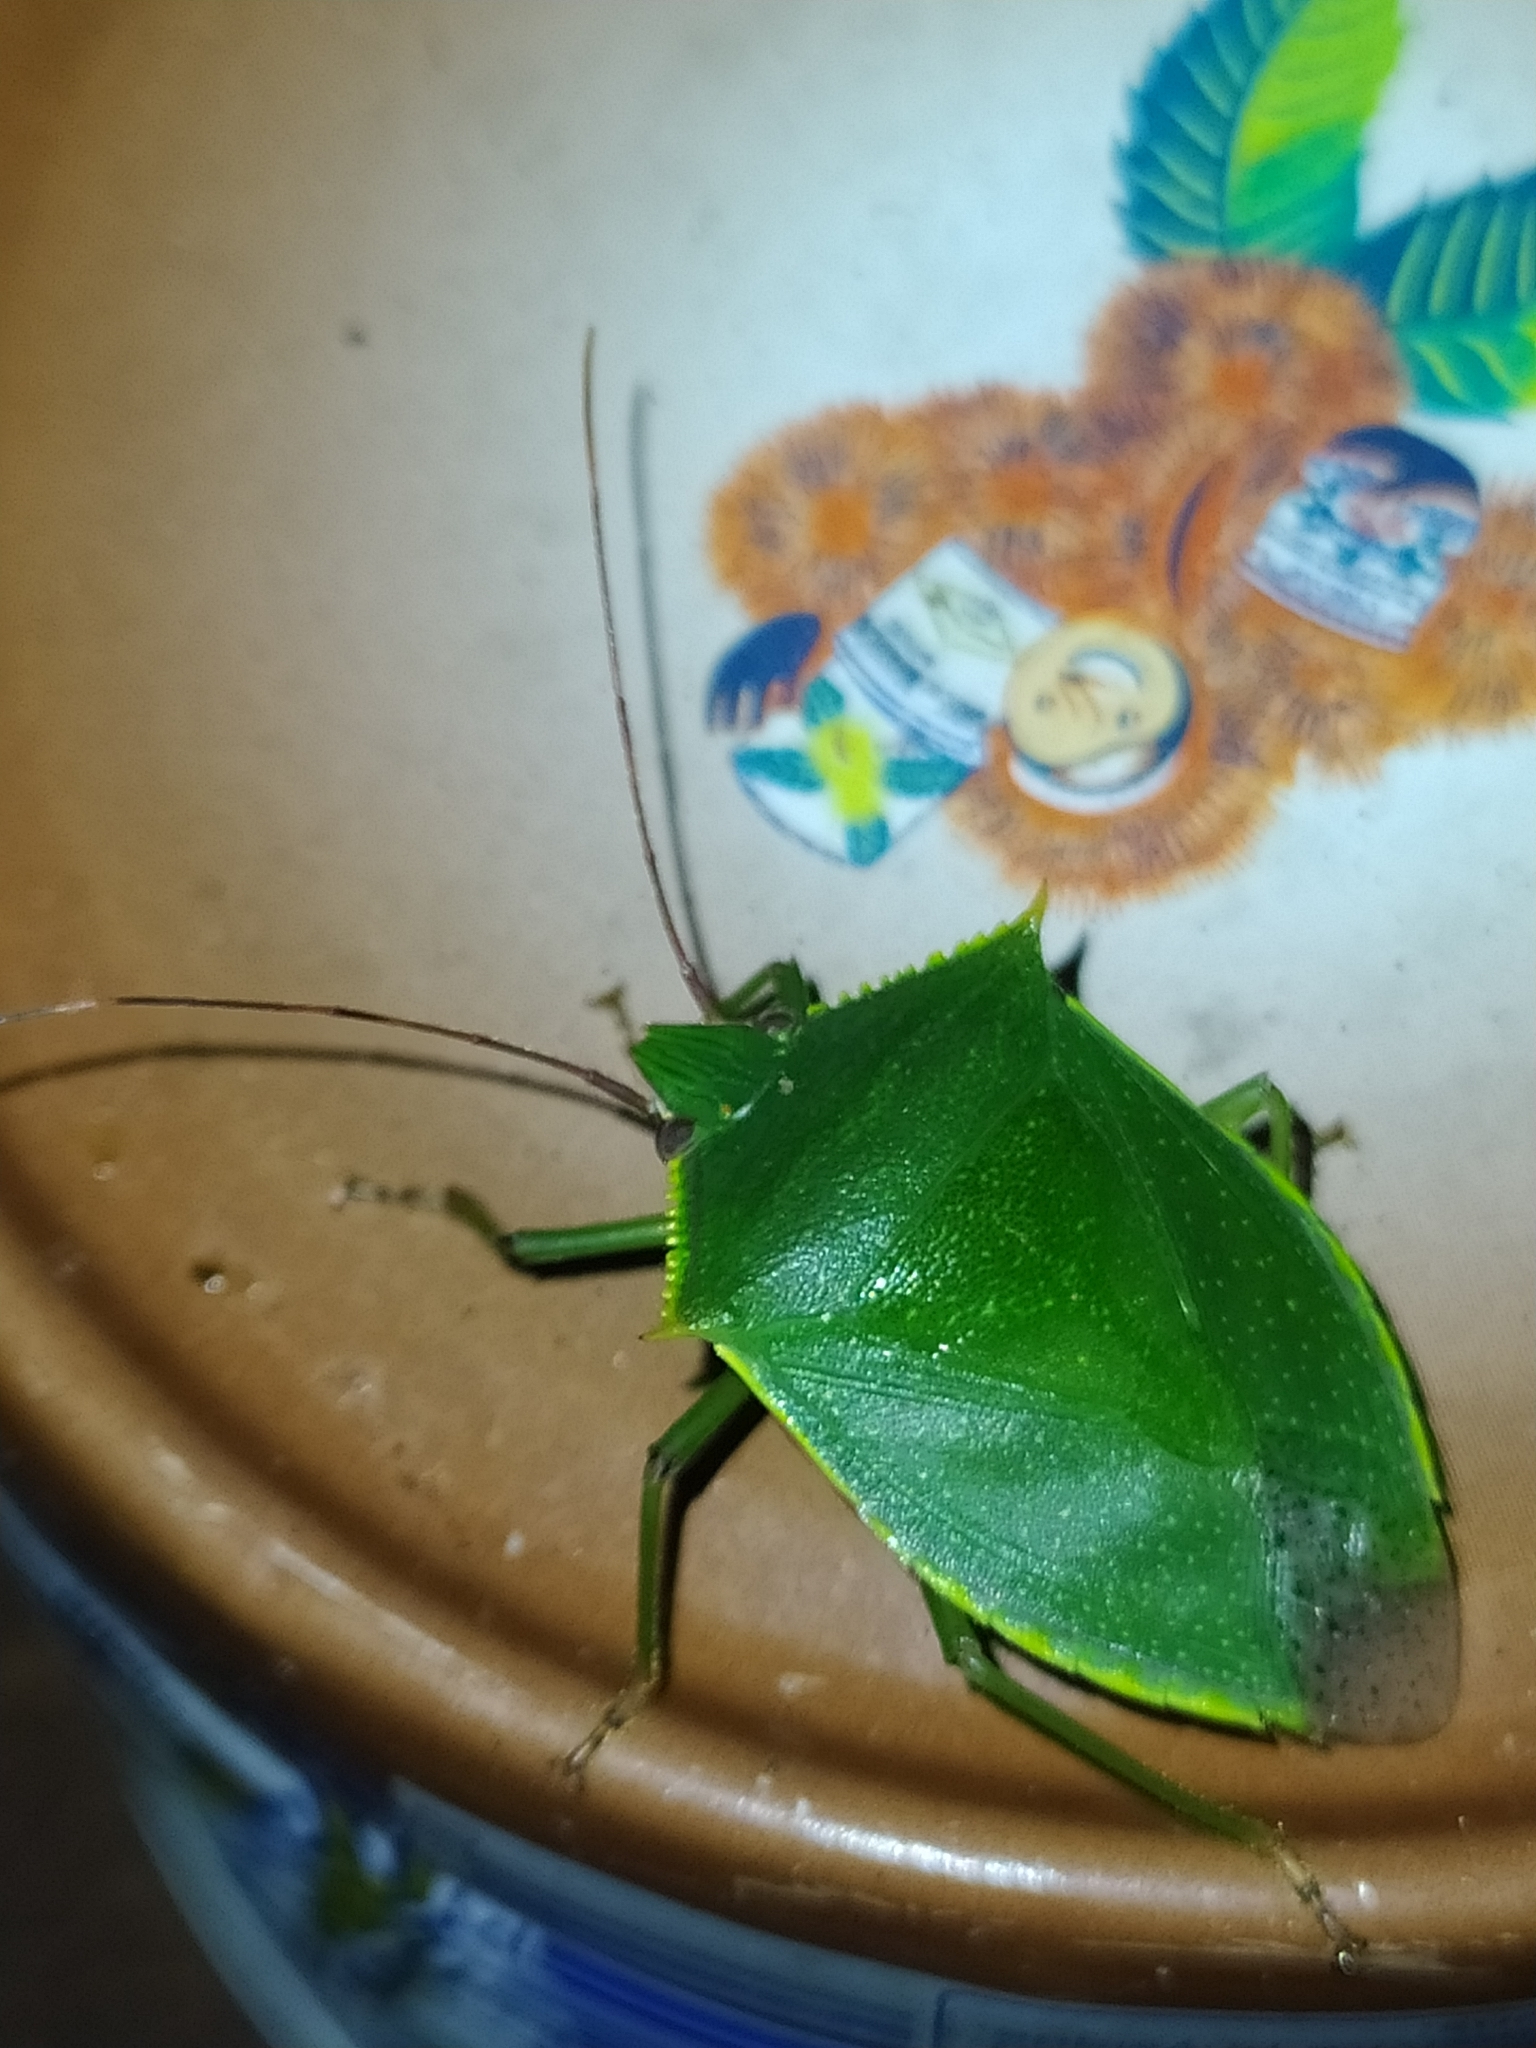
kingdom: Animalia
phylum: Arthropoda
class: Insecta
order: Hemiptera
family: Pentatomidae
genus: Loxa
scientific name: Loxa virescens
